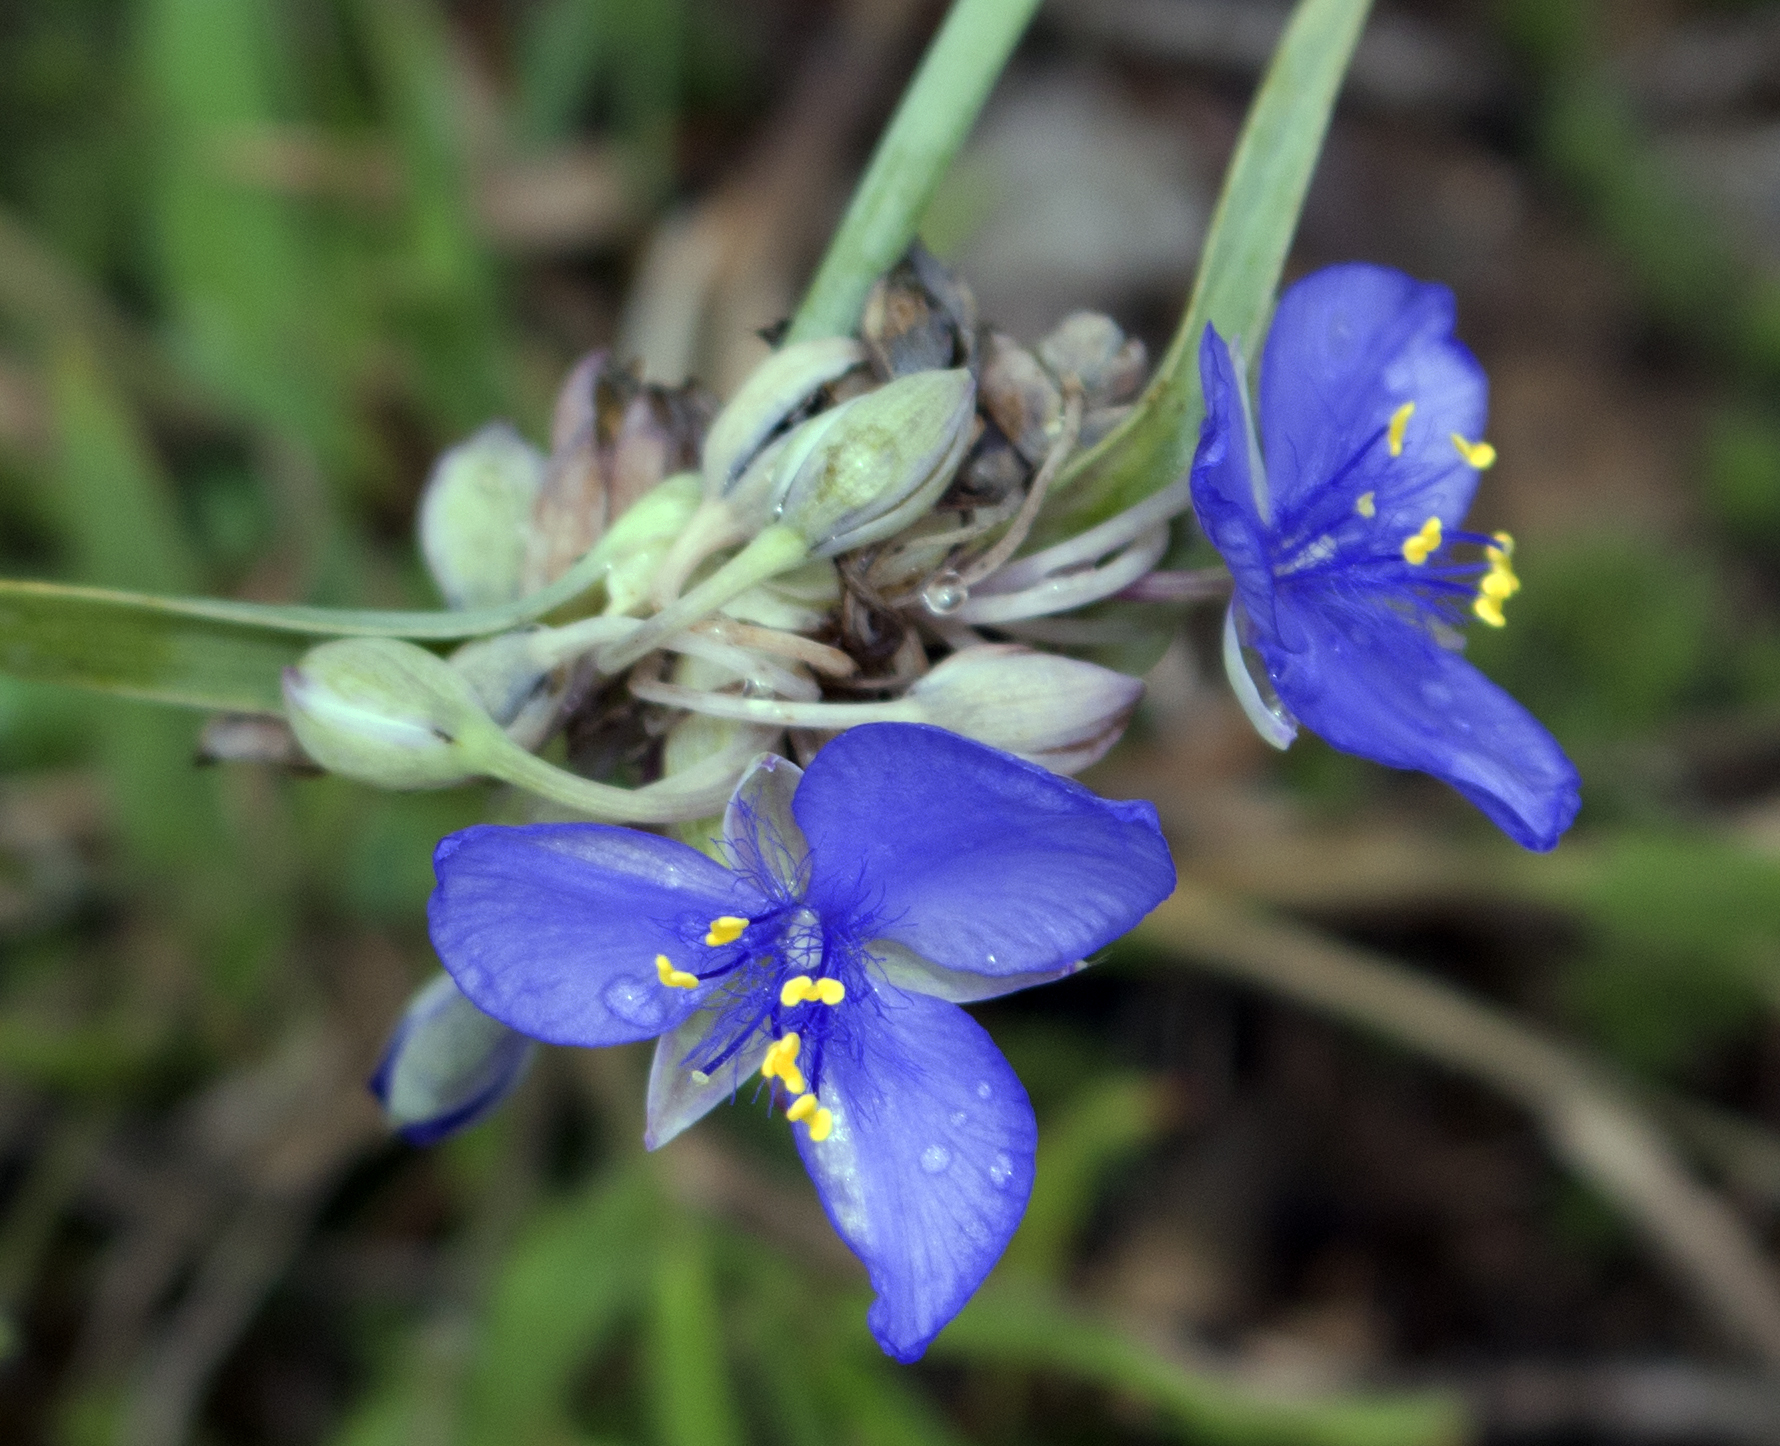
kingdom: Plantae
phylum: Tracheophyta
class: Liliopsida
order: Commelinales
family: Commelinaceae
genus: Tradescantia
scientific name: Tradescantia ohiensis
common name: Ohio spiderwort
